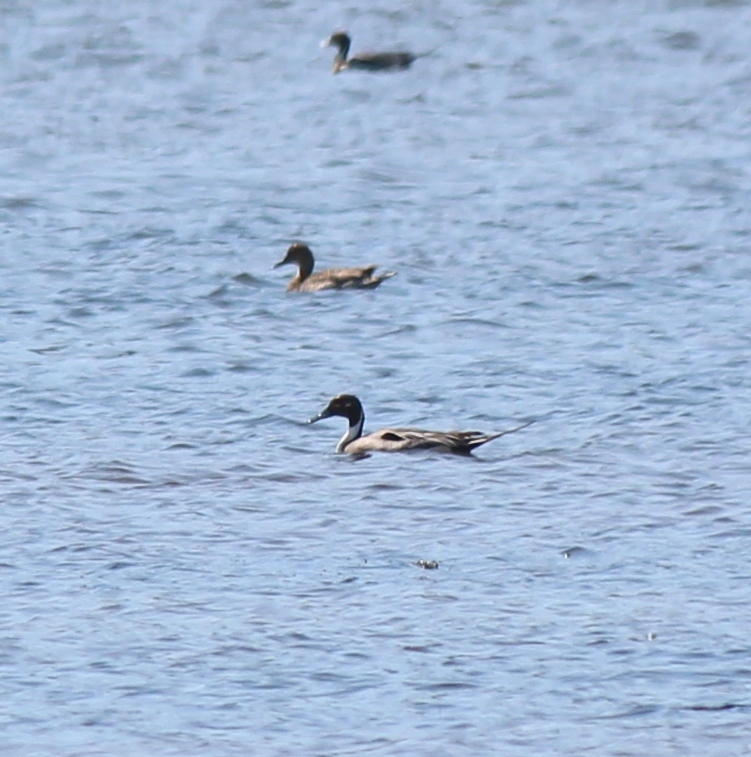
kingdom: Animalia
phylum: Chordata
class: Aves
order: Anseriformes
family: Anatidae
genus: Anas
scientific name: Anas acuta
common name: Northern pintail
